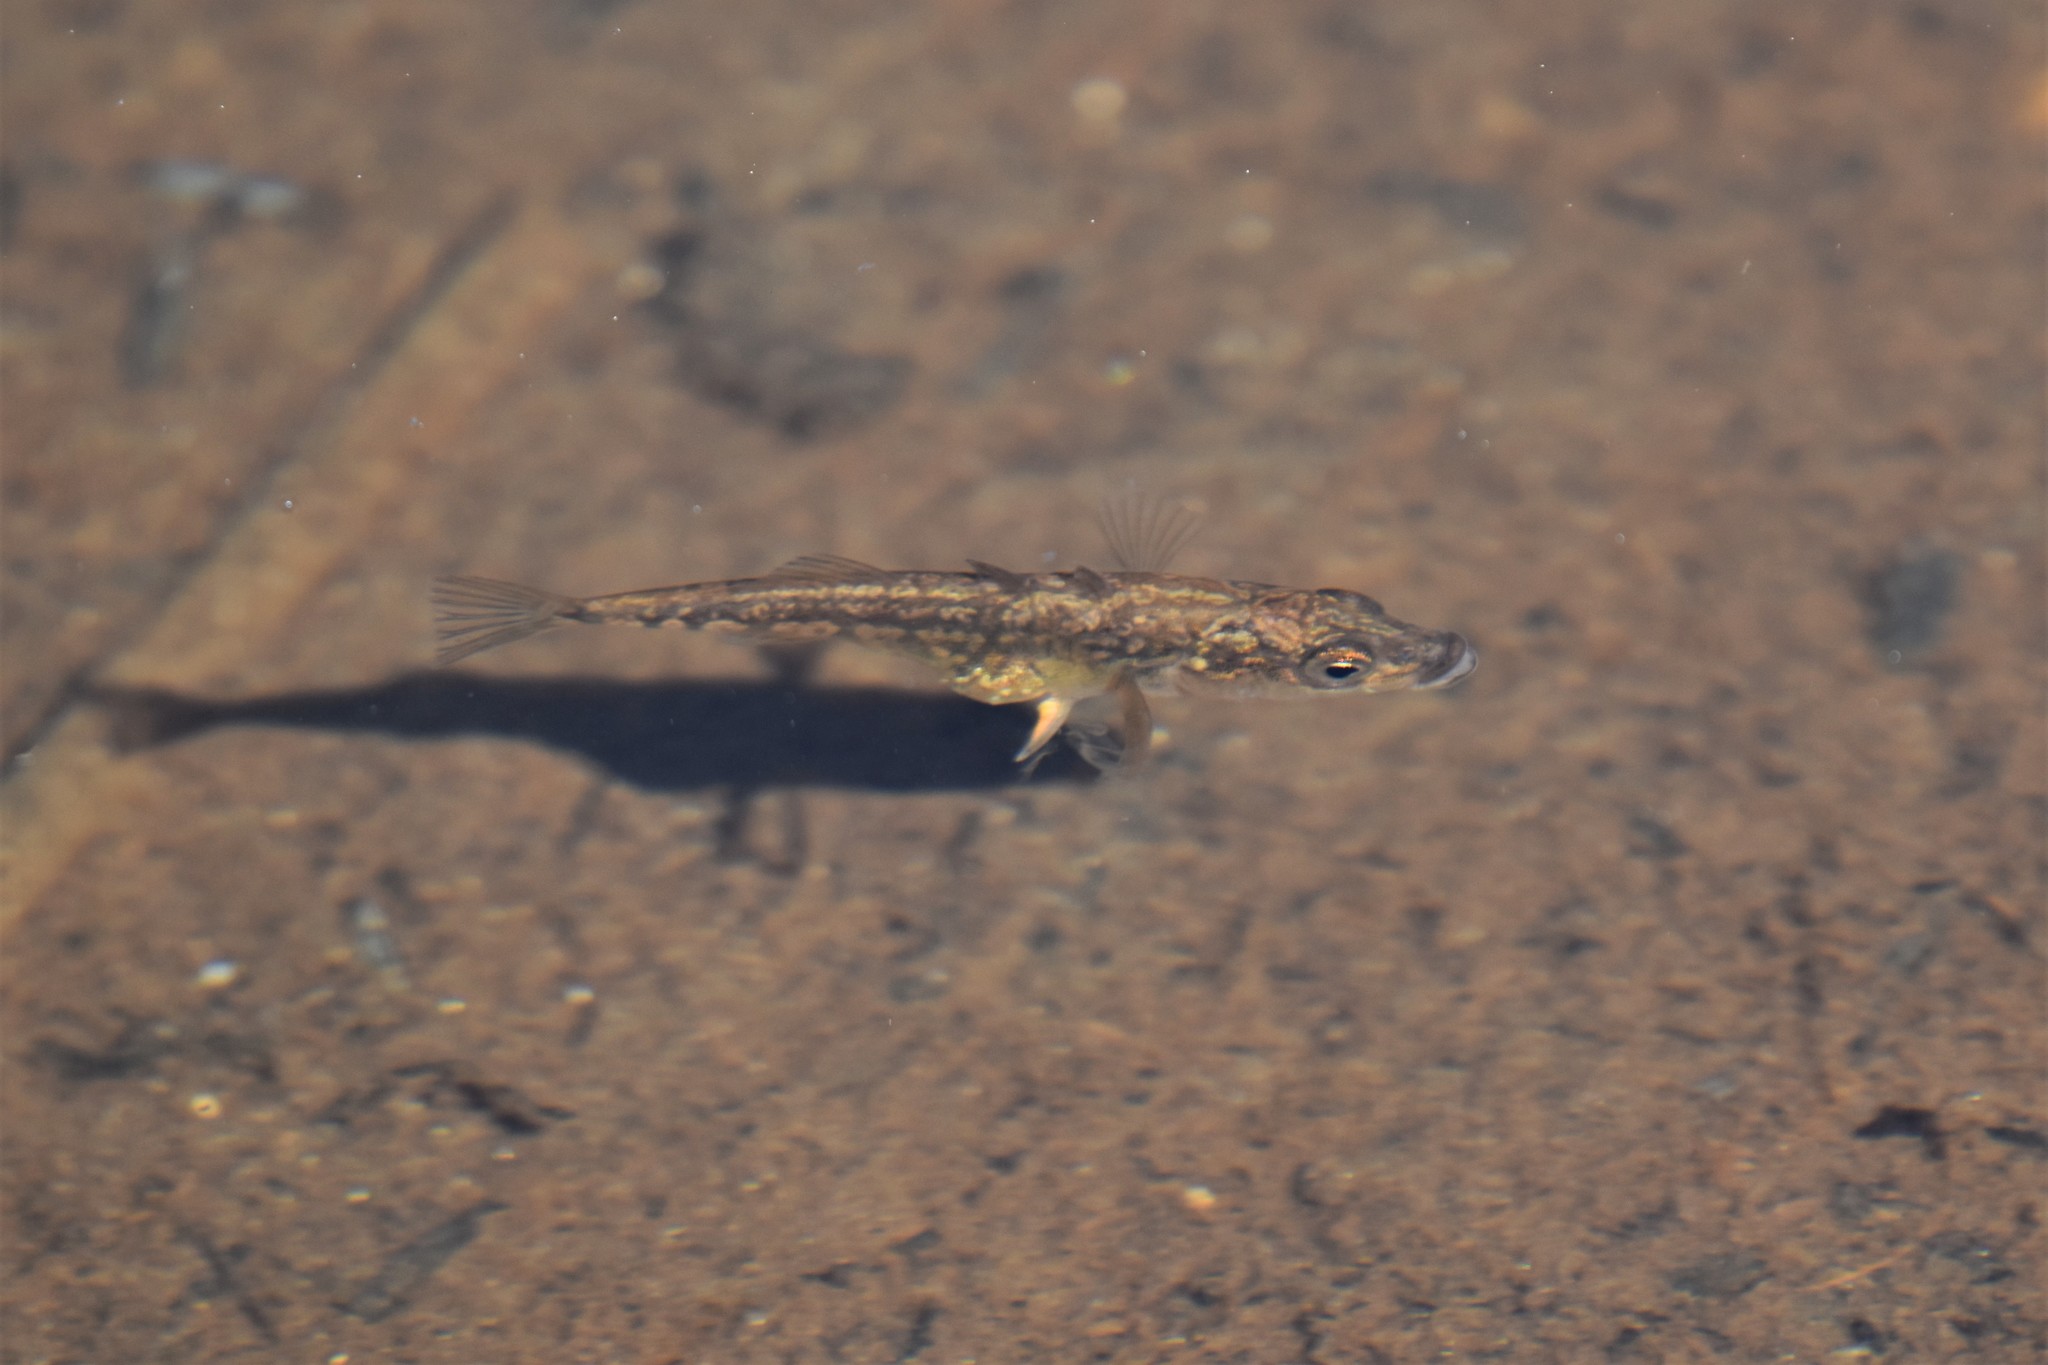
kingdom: Animalia
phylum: Chordata
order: Gasterosteiformes
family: Gasterosteidae
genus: Gasterosteus
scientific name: Gasterosteus aculeatus
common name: Three-spined stickleback
